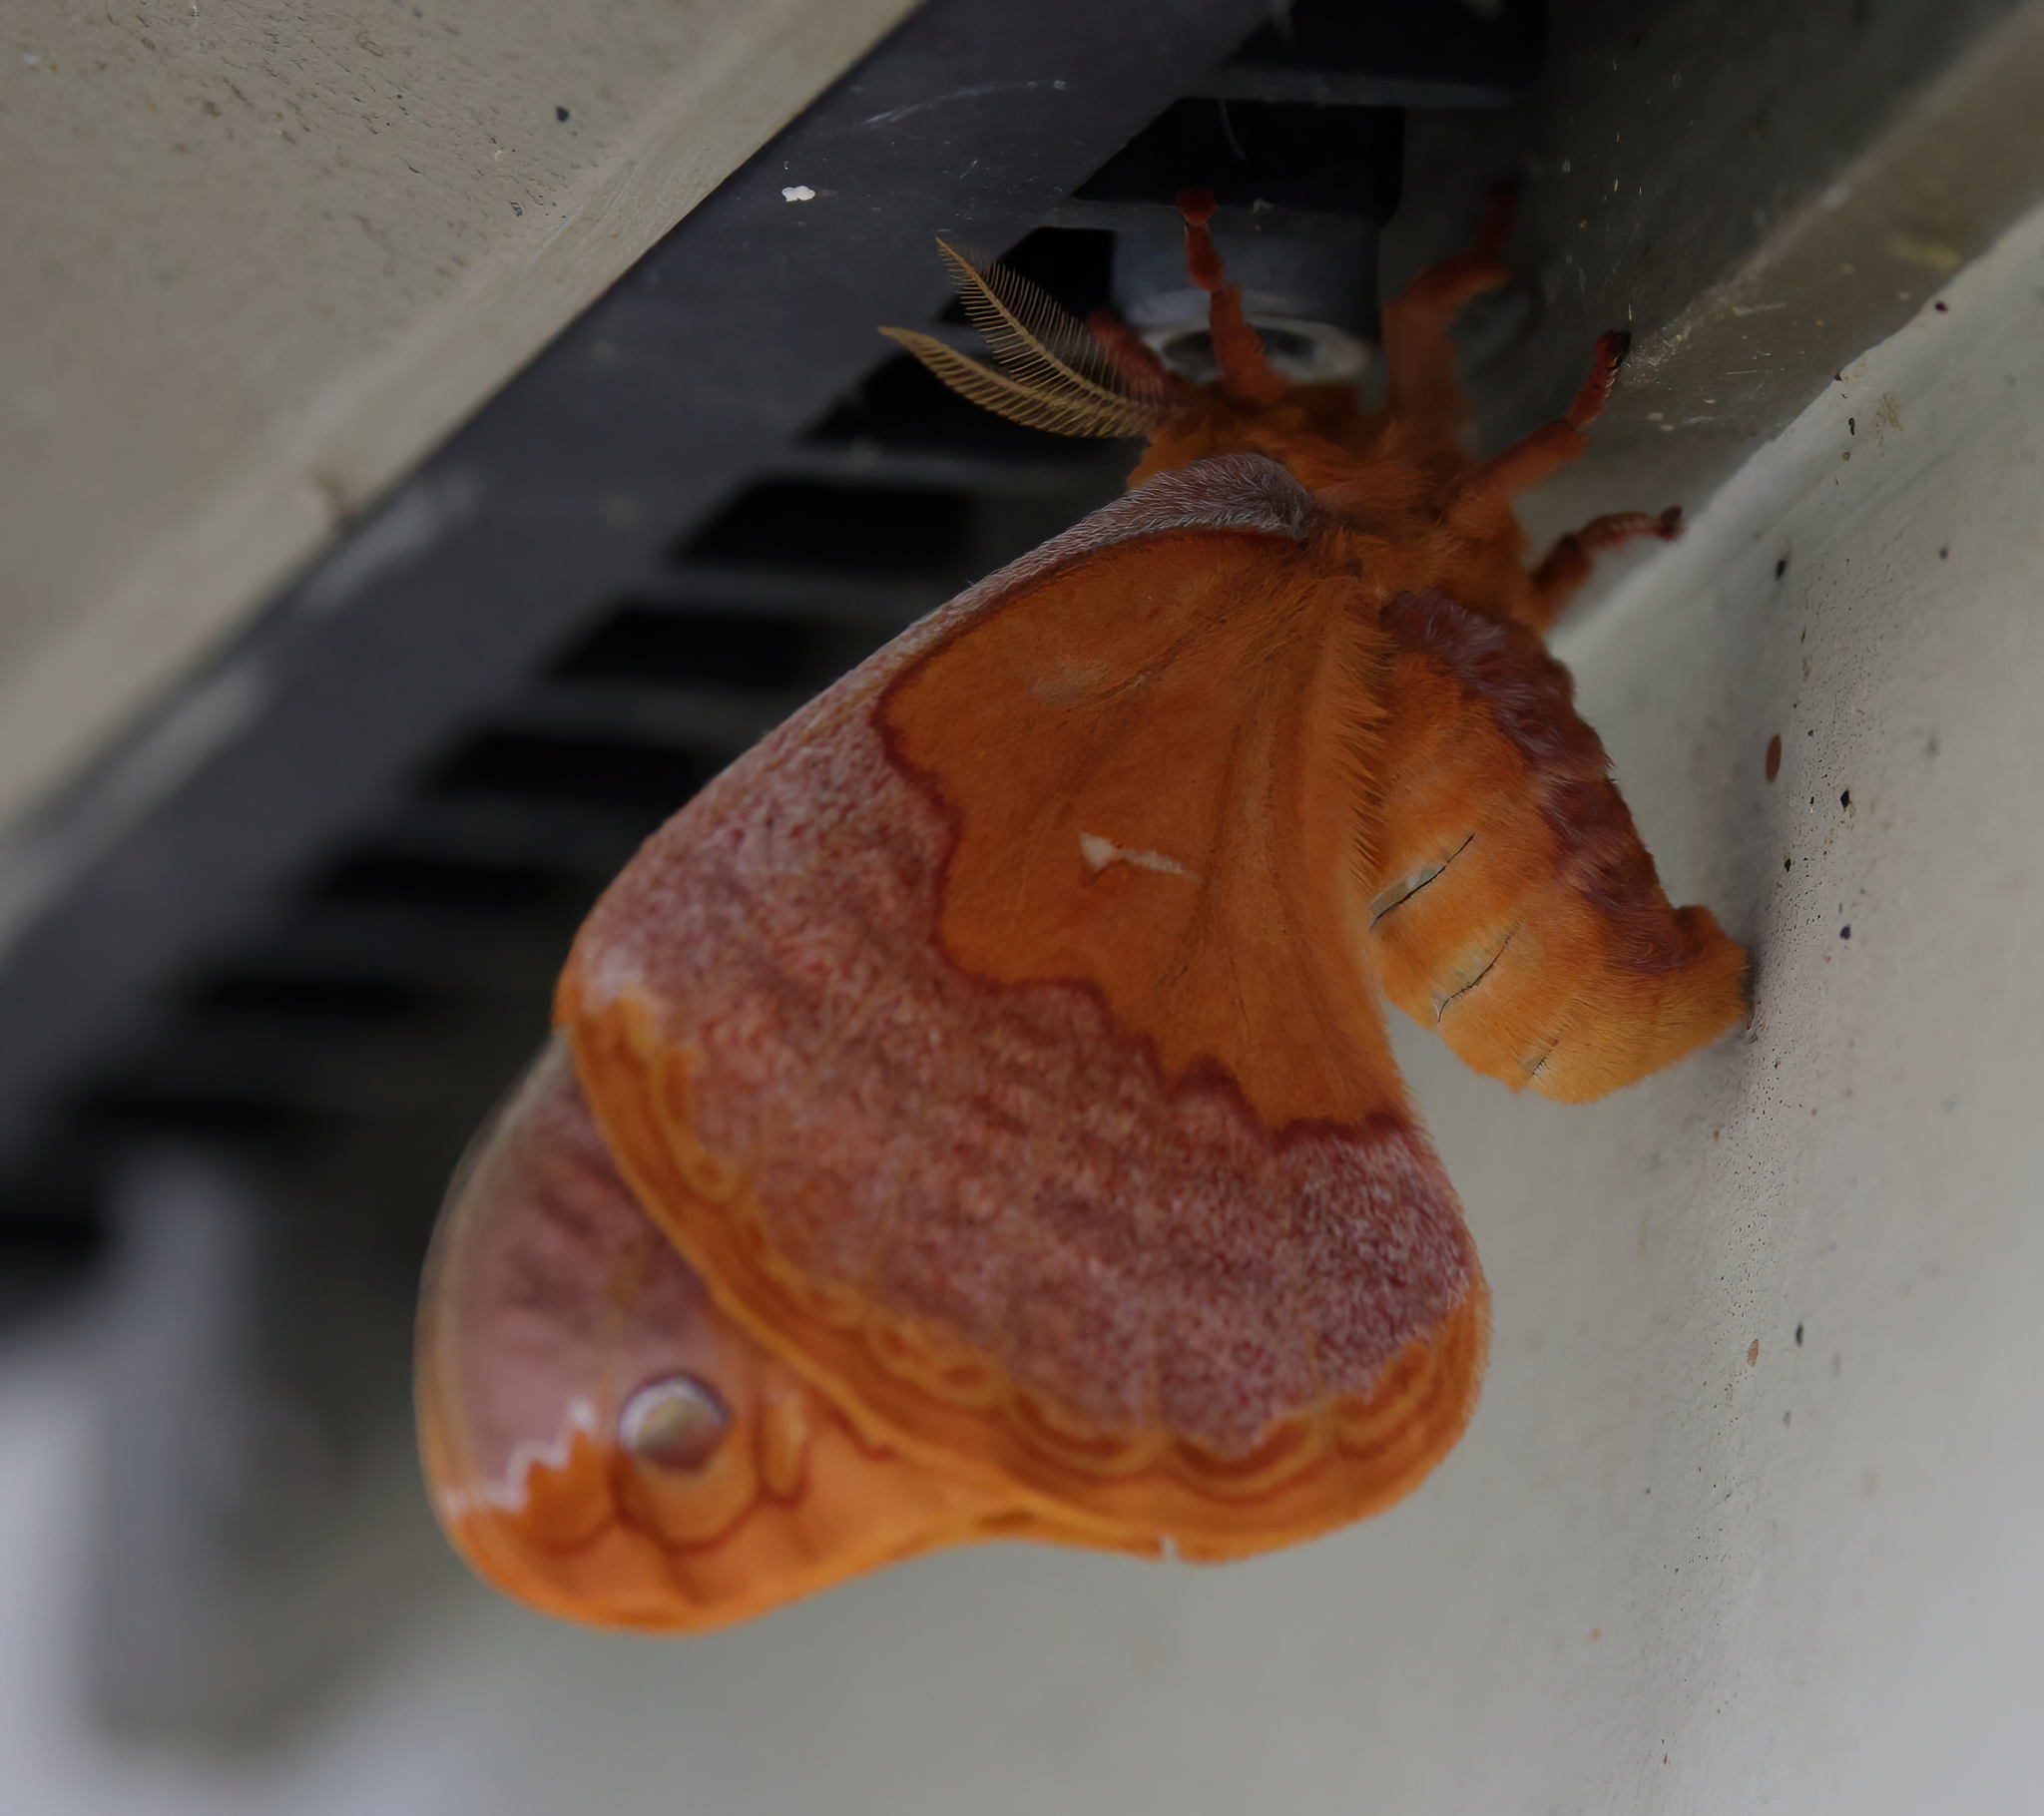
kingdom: Animalia
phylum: Arthropoda
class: Insecta
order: Lepidoptera
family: Saturniidae
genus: Callosamia
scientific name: Callosamia securifera
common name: Sweetbay silkmoth
